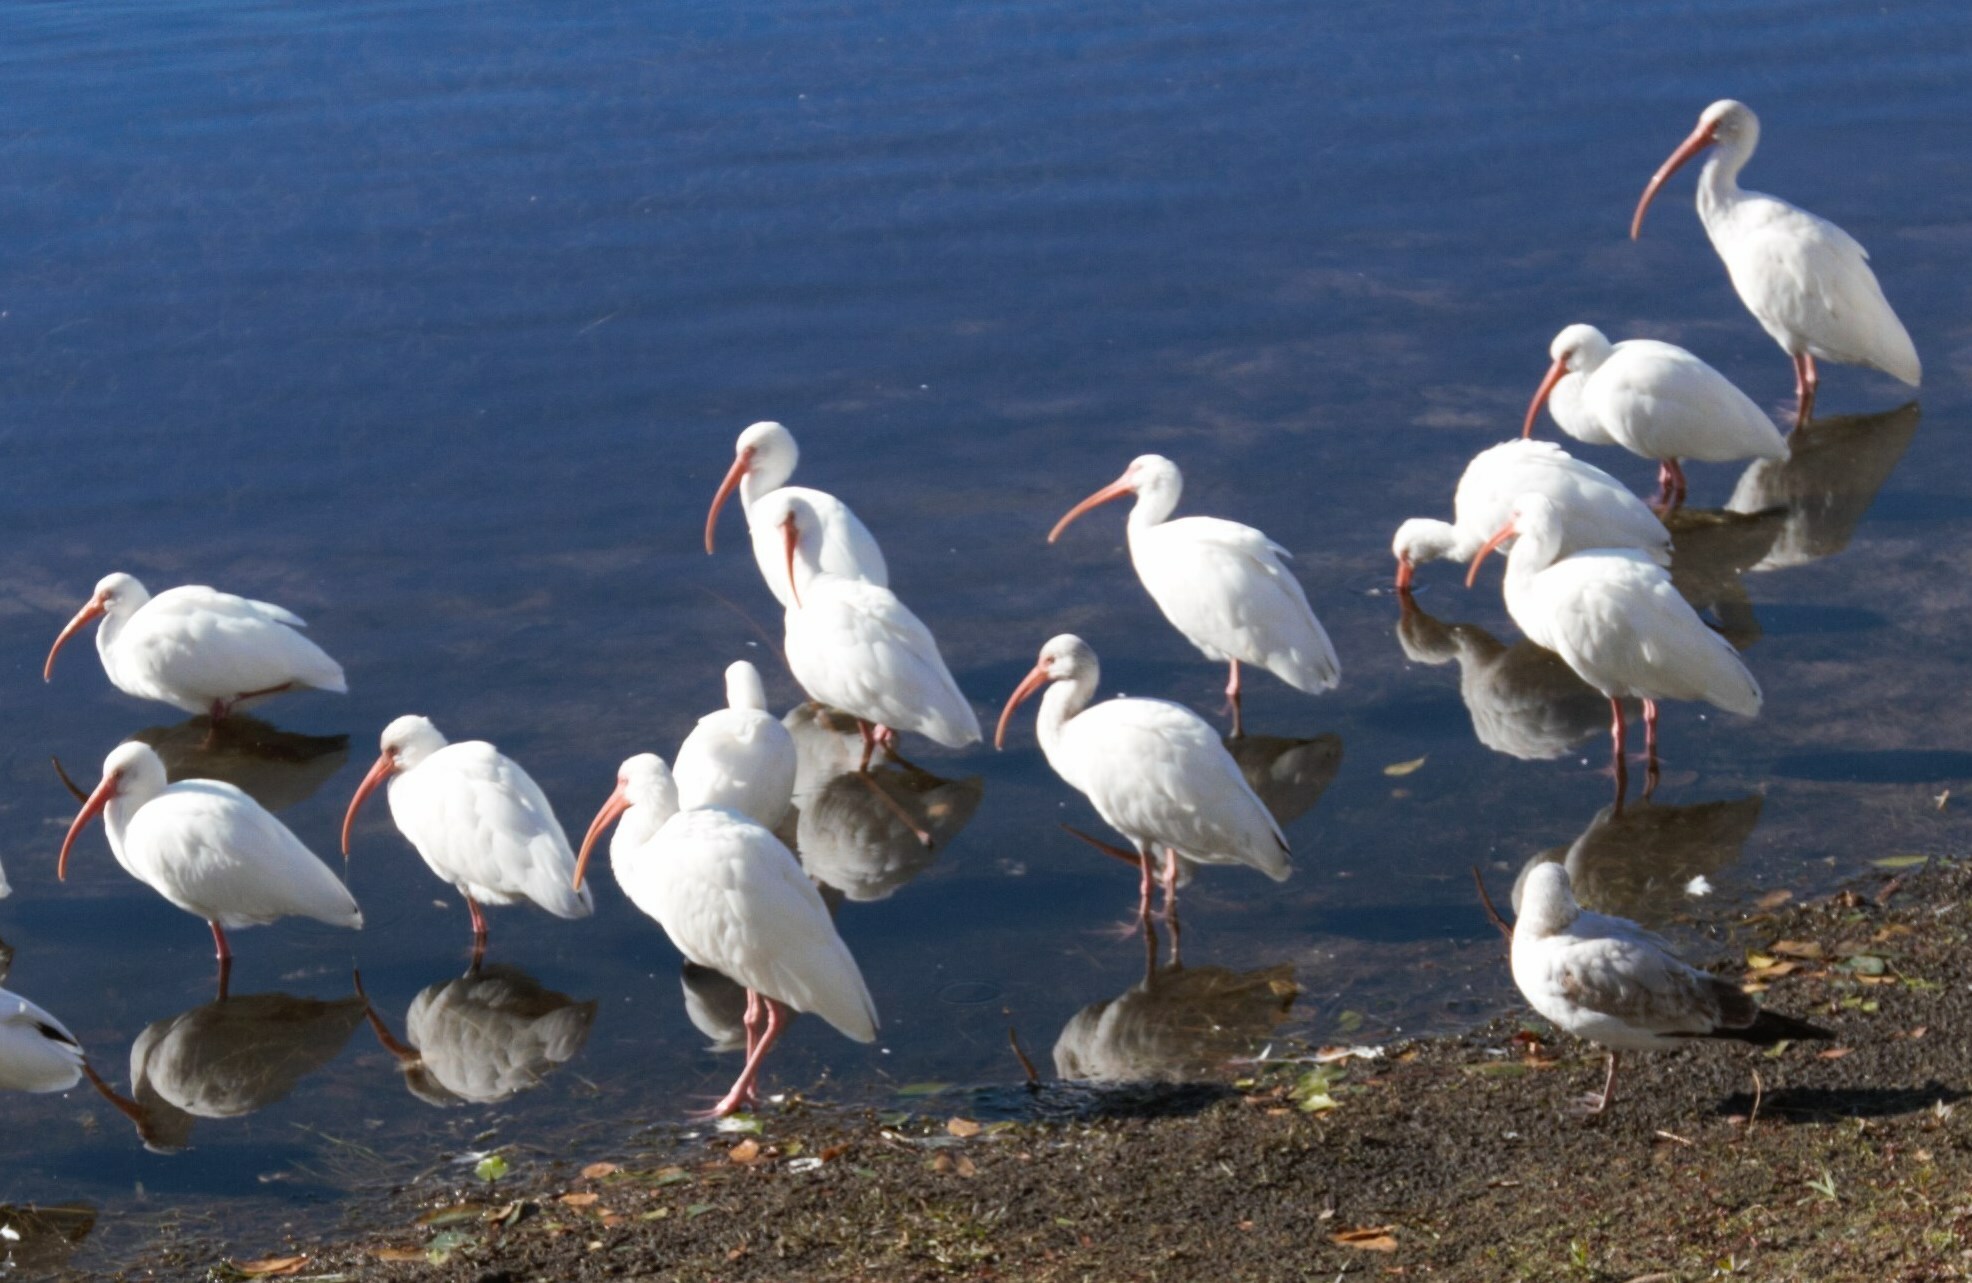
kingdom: Animalia
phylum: Chordata
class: Aves
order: Pelecaniformes
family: Threskiornithidae
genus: Eudocimus
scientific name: Eudocimus albus
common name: White ibis
